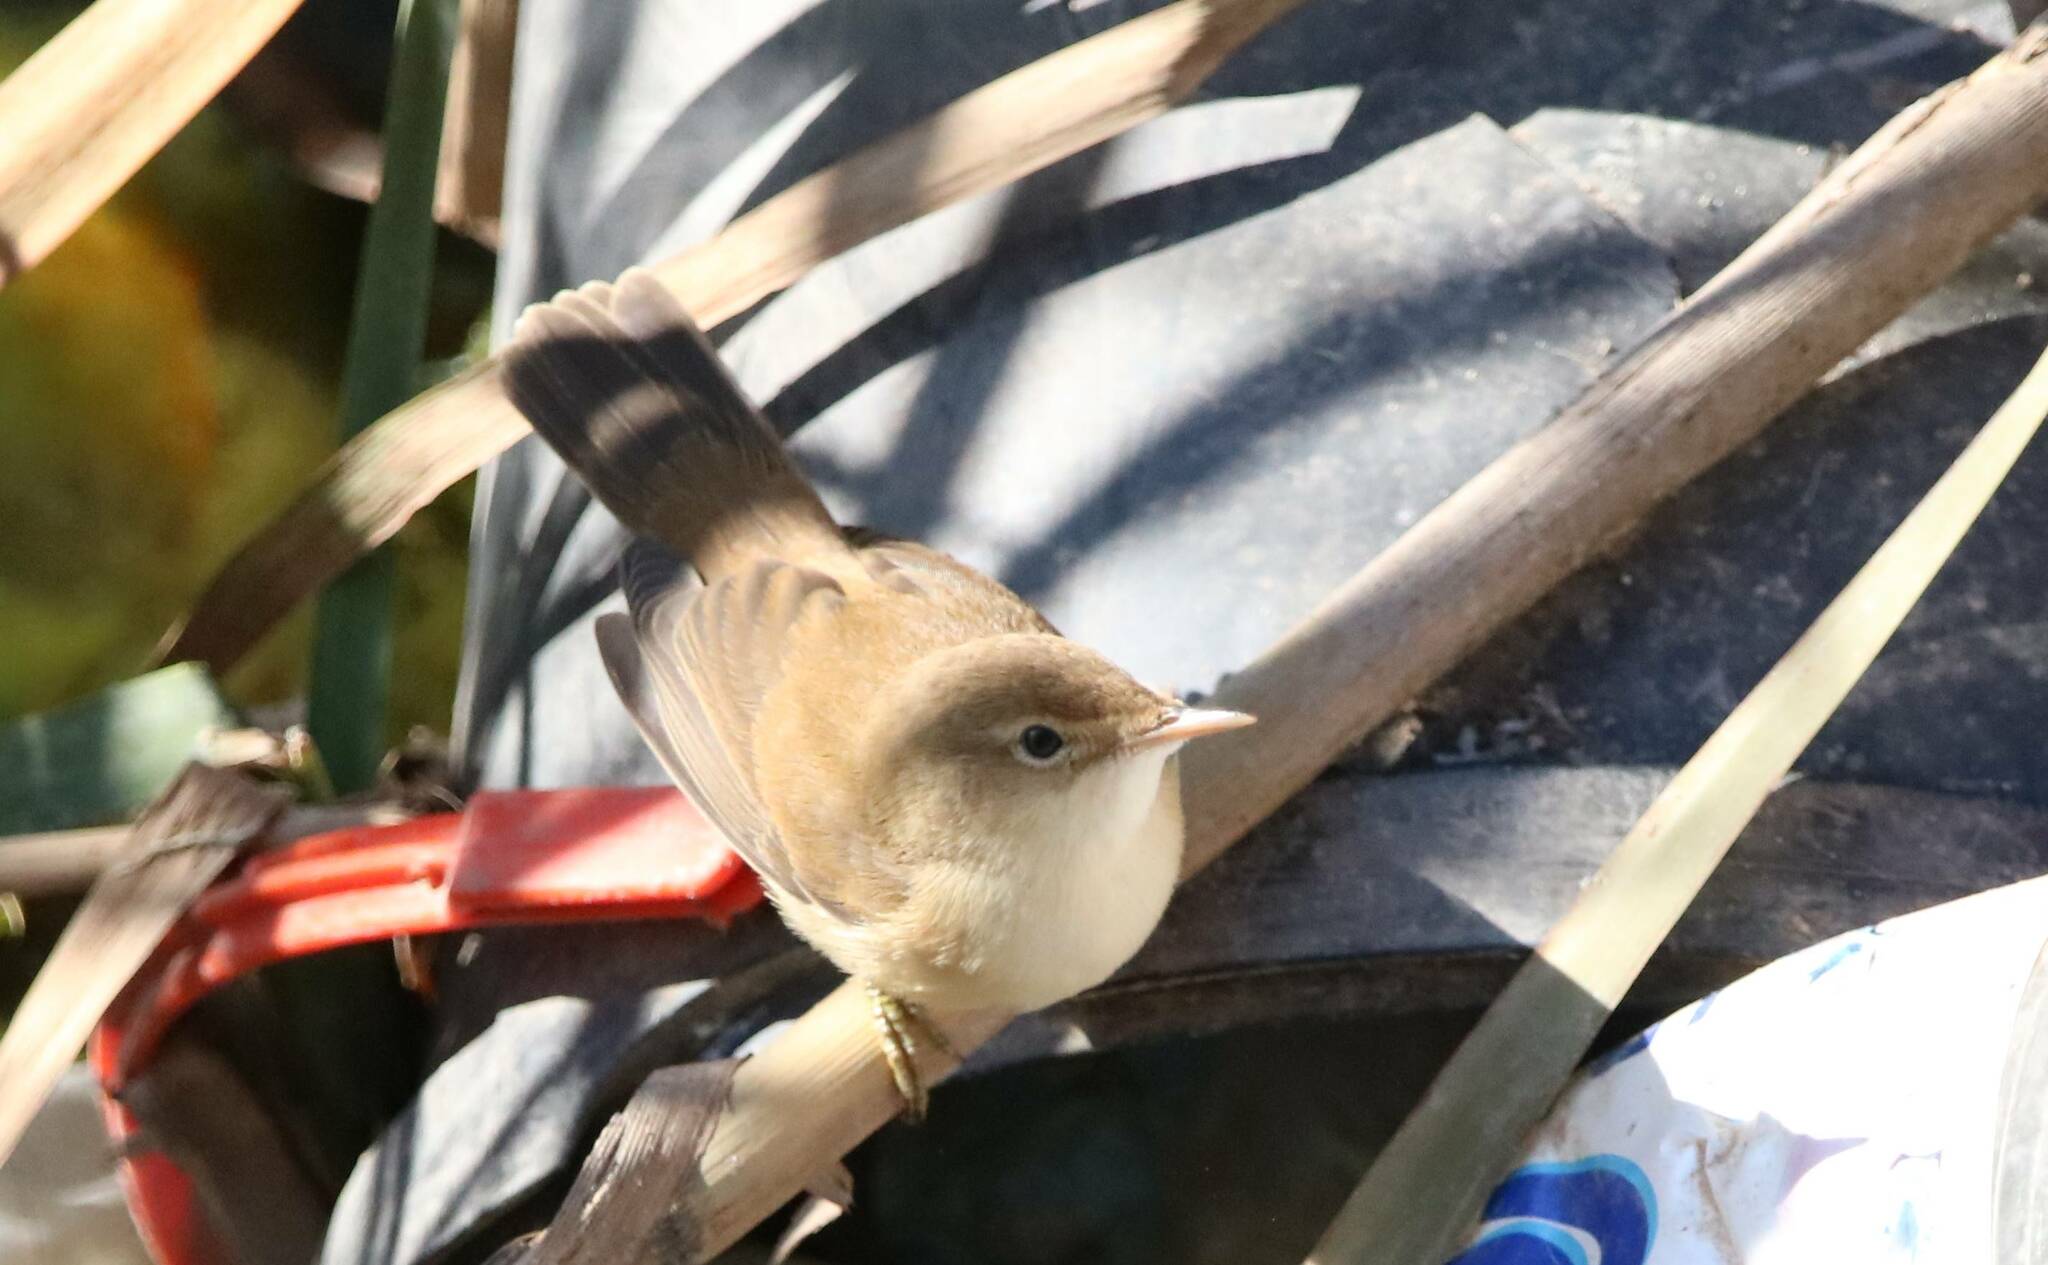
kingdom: Animalia
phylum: Chordata
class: Aves
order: Passeriformes
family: Acrocephalidae
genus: Acrocephalus
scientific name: Acrocephalus scirpaceus
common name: Eurasian reed warbler
